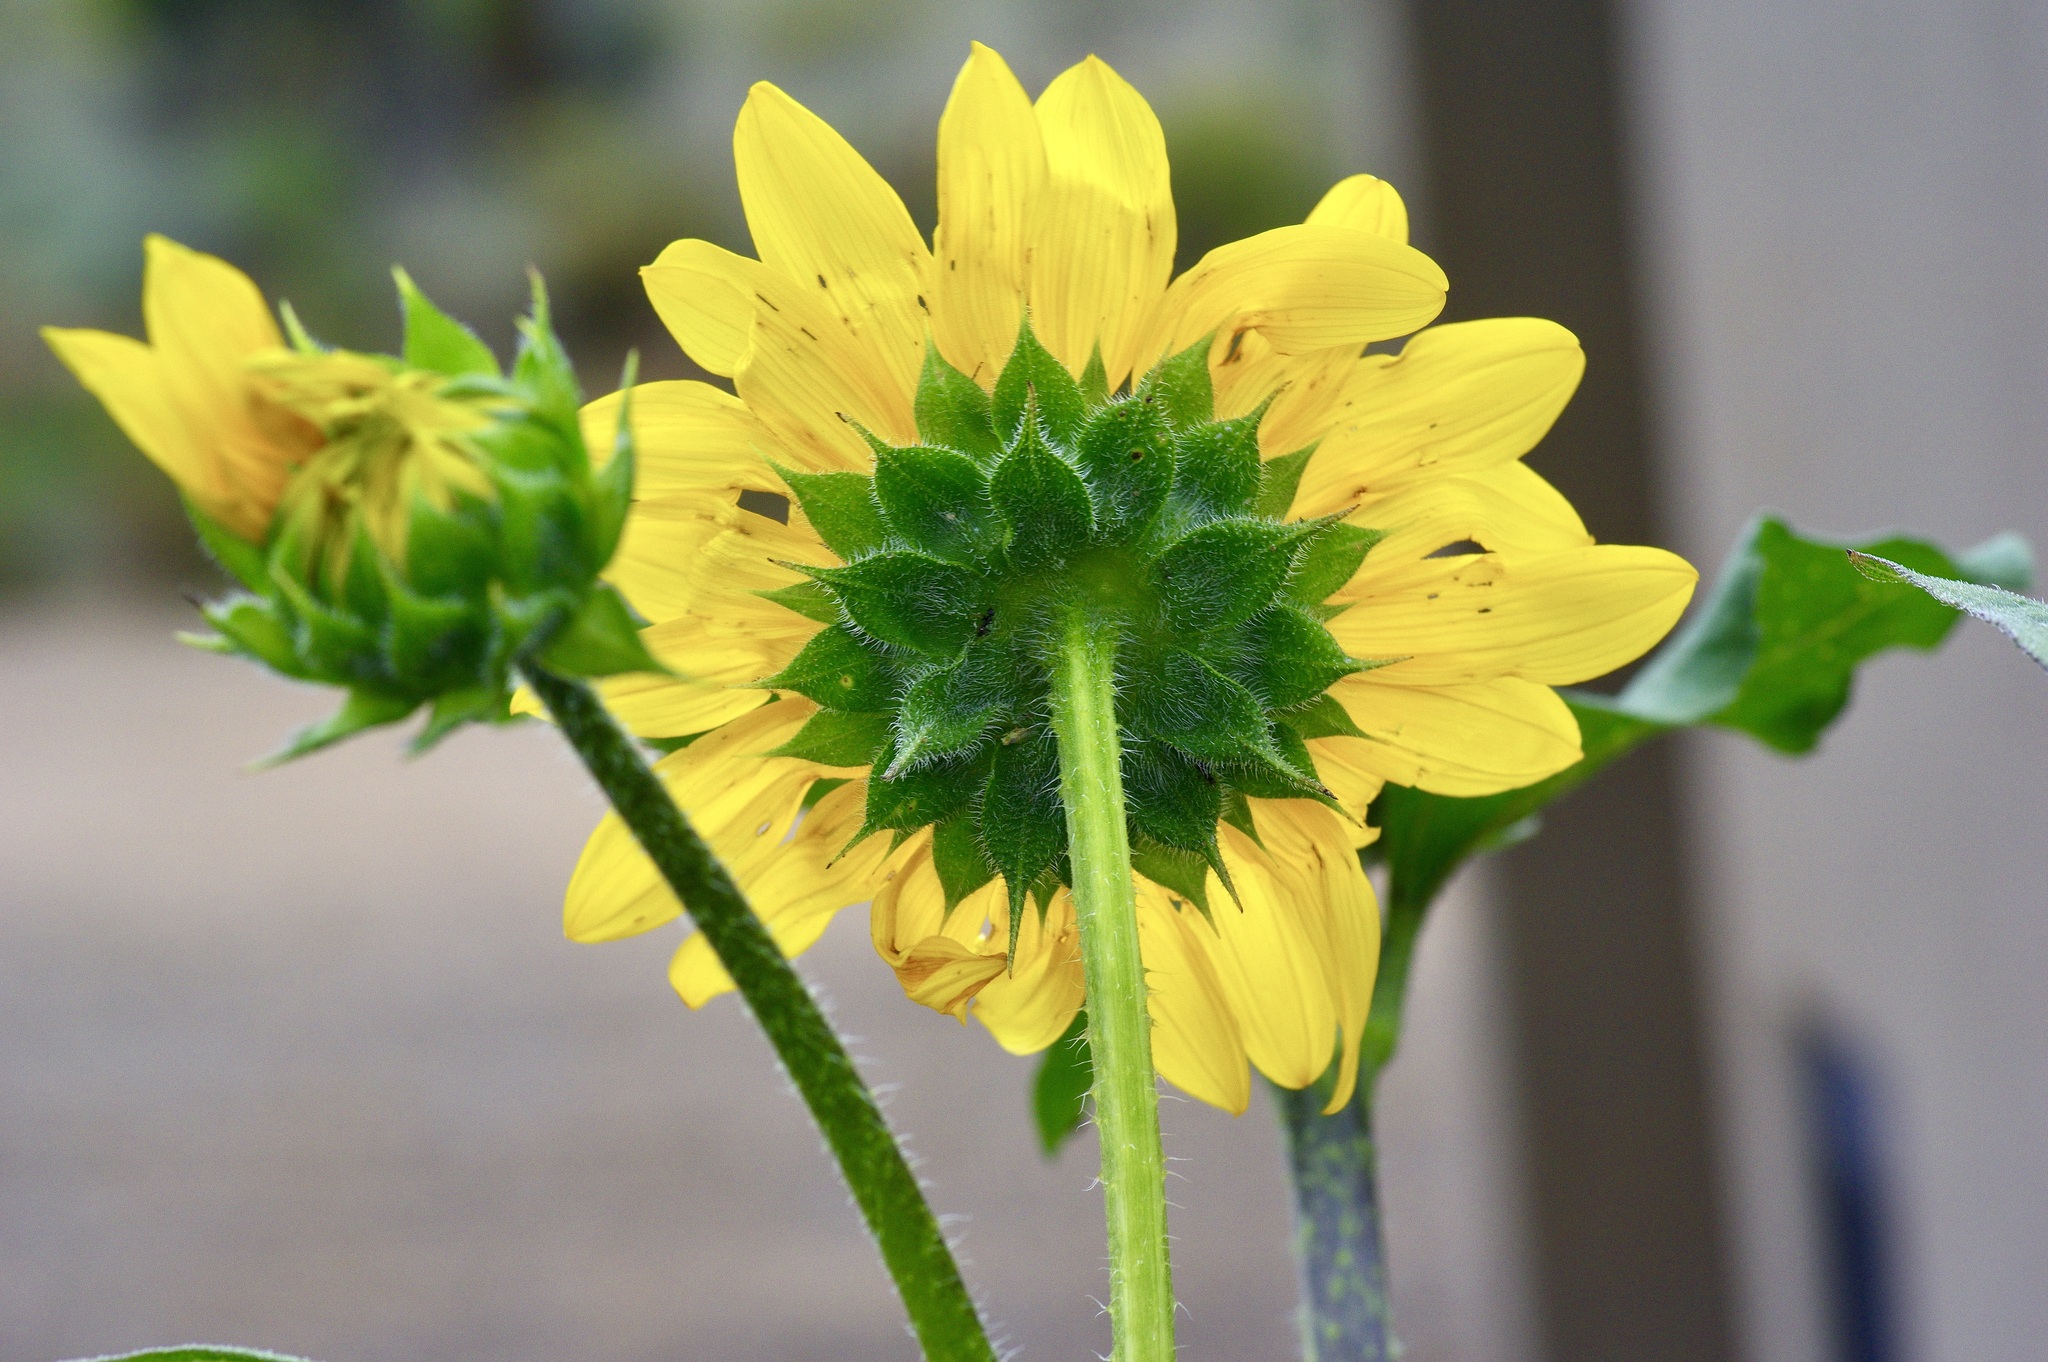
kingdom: Plantae
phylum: Tracheophyta
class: Magnoliopsida
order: Asterales
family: Asteraceae
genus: Helianthus
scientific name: Helianthus annuus
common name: Sunflower
